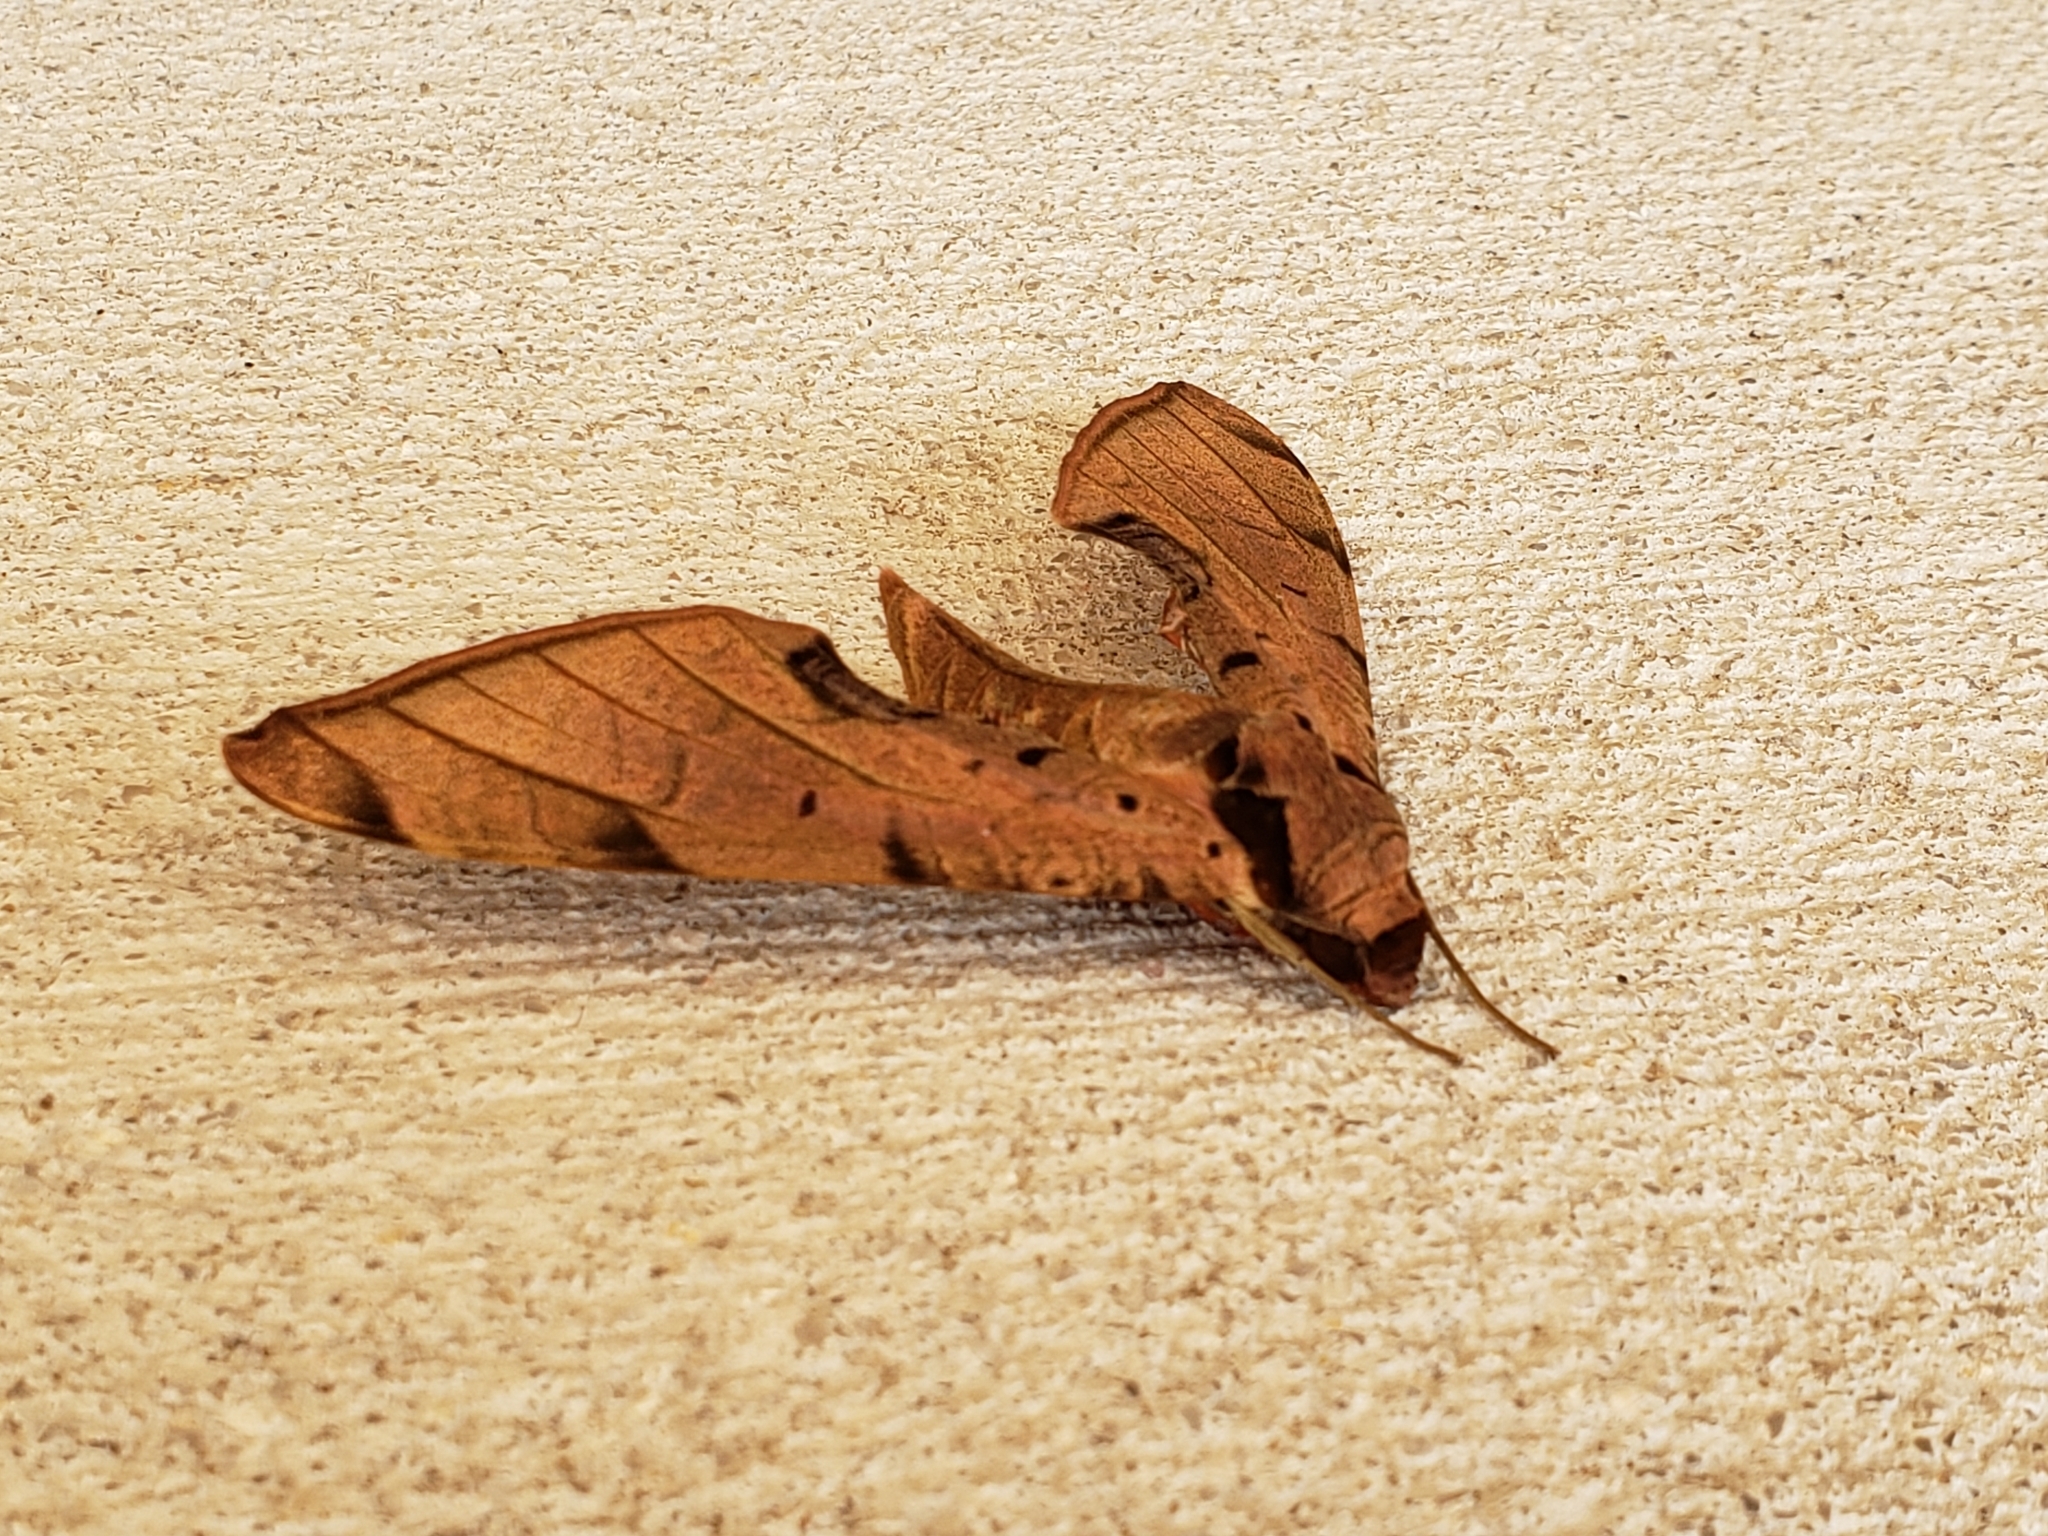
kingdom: Animalia
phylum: Arthropoda
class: Insecta
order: Lepidoptera
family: Sphingidae
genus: Protambulyx
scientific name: Protambulyx strigilis
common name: Streaked sphinx
